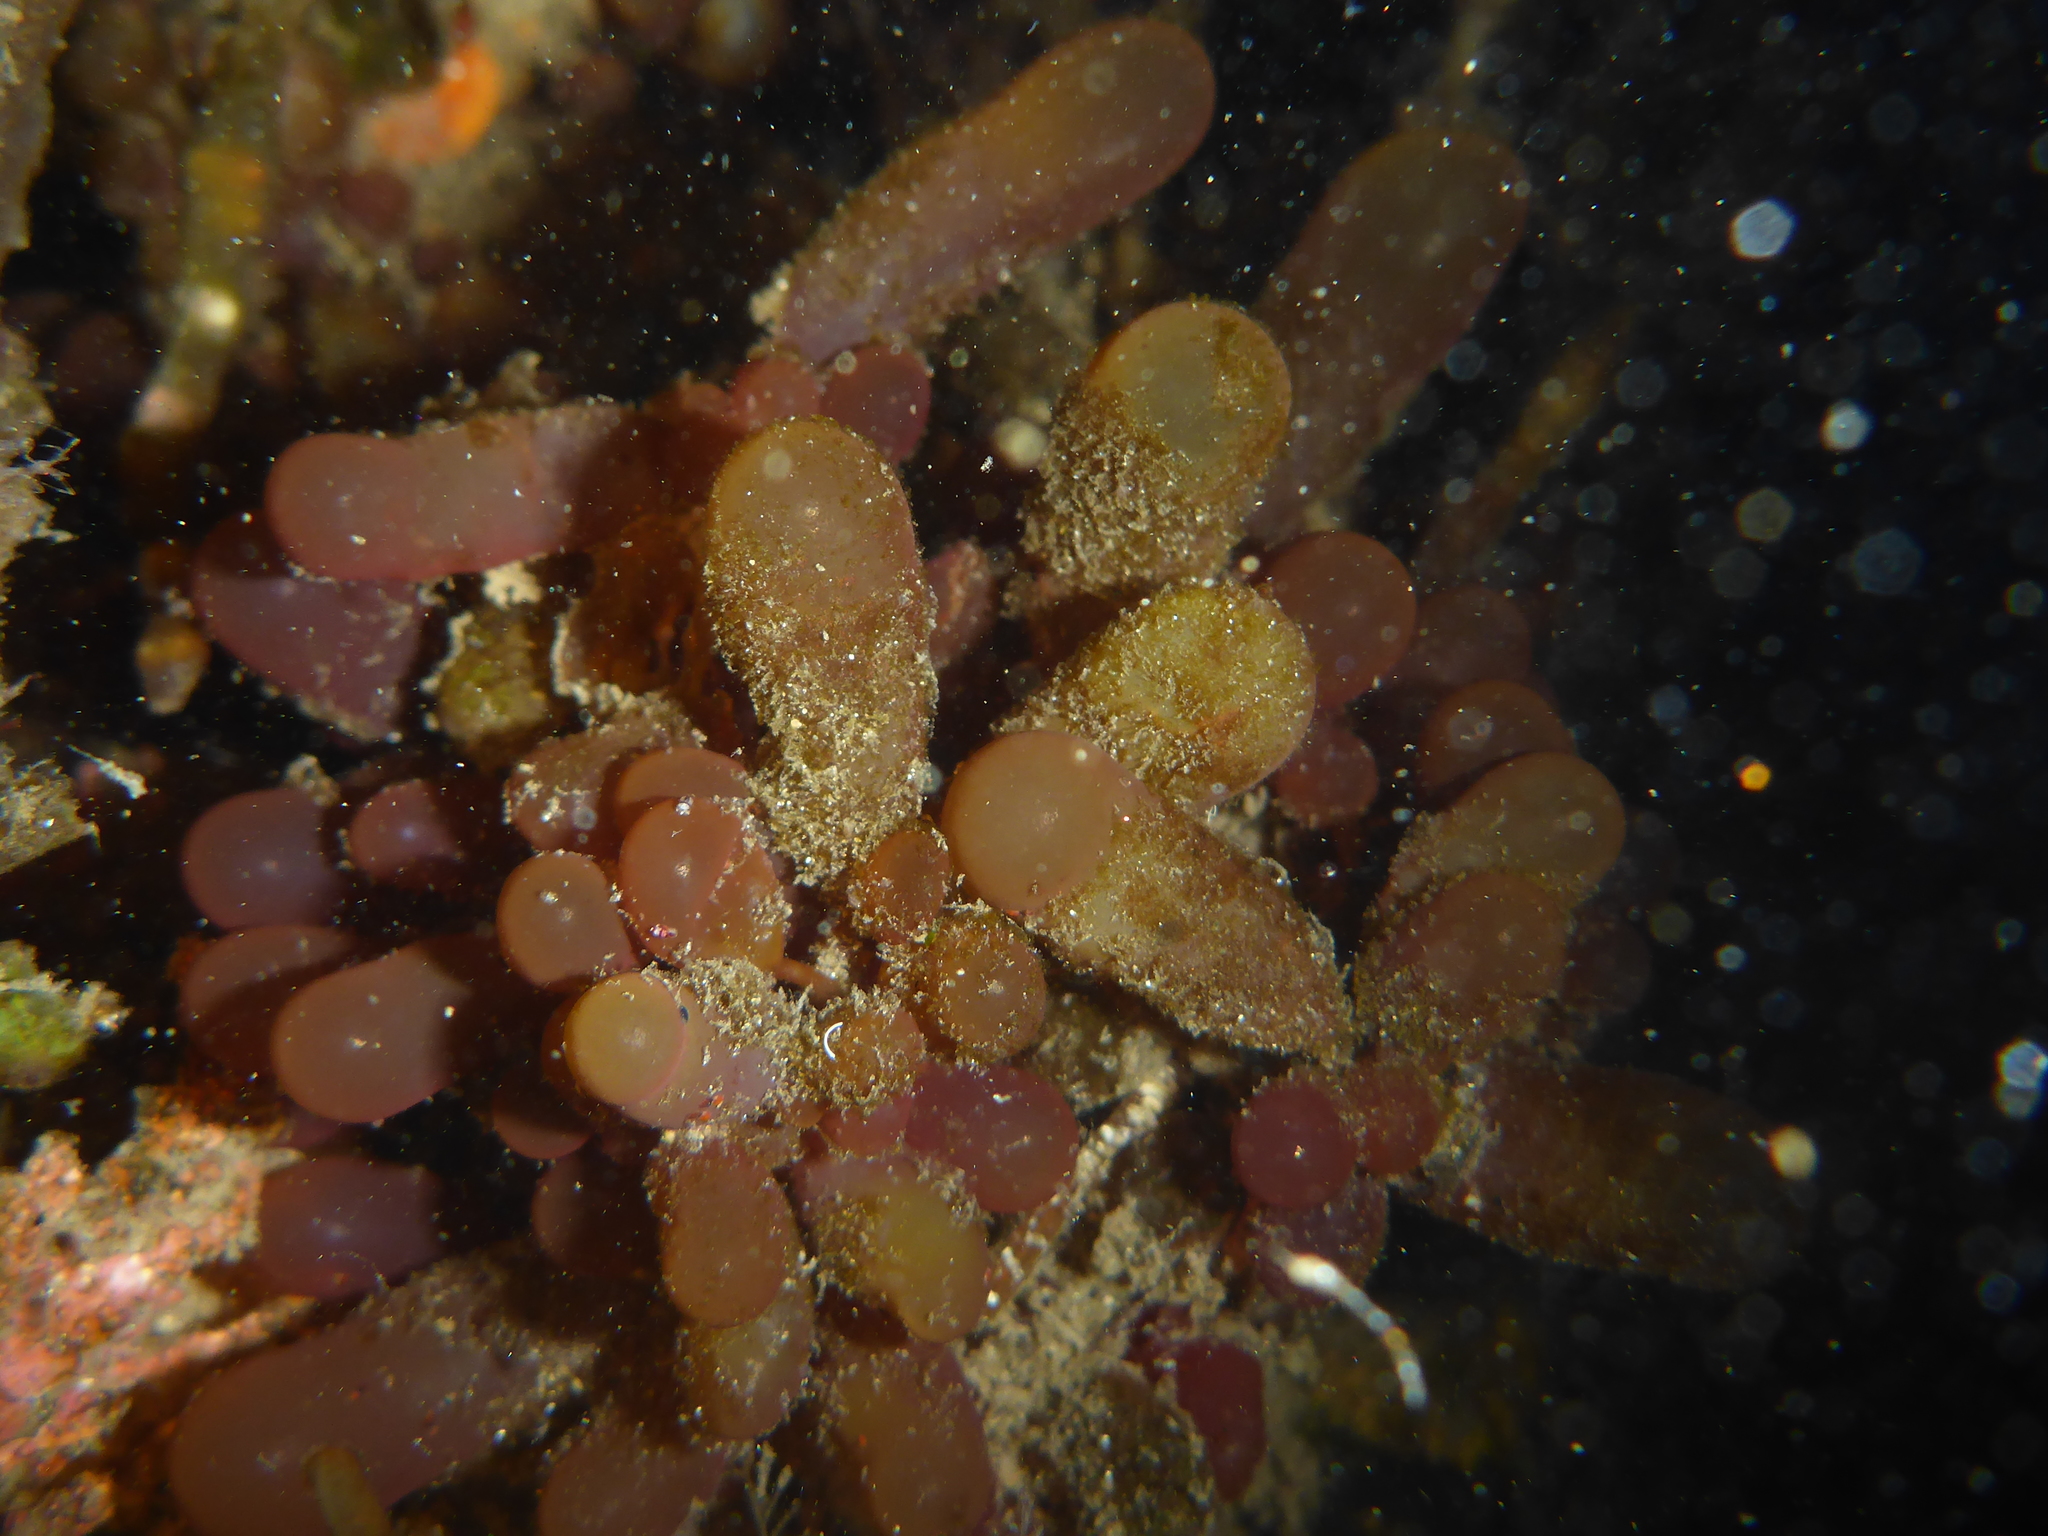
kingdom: Plantae
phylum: Rhodophyta
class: Florideophyceae
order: Rhodymeniales
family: Rhodymeniaceae
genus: Botryocladia
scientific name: Botryocladia pseudodichotoma
